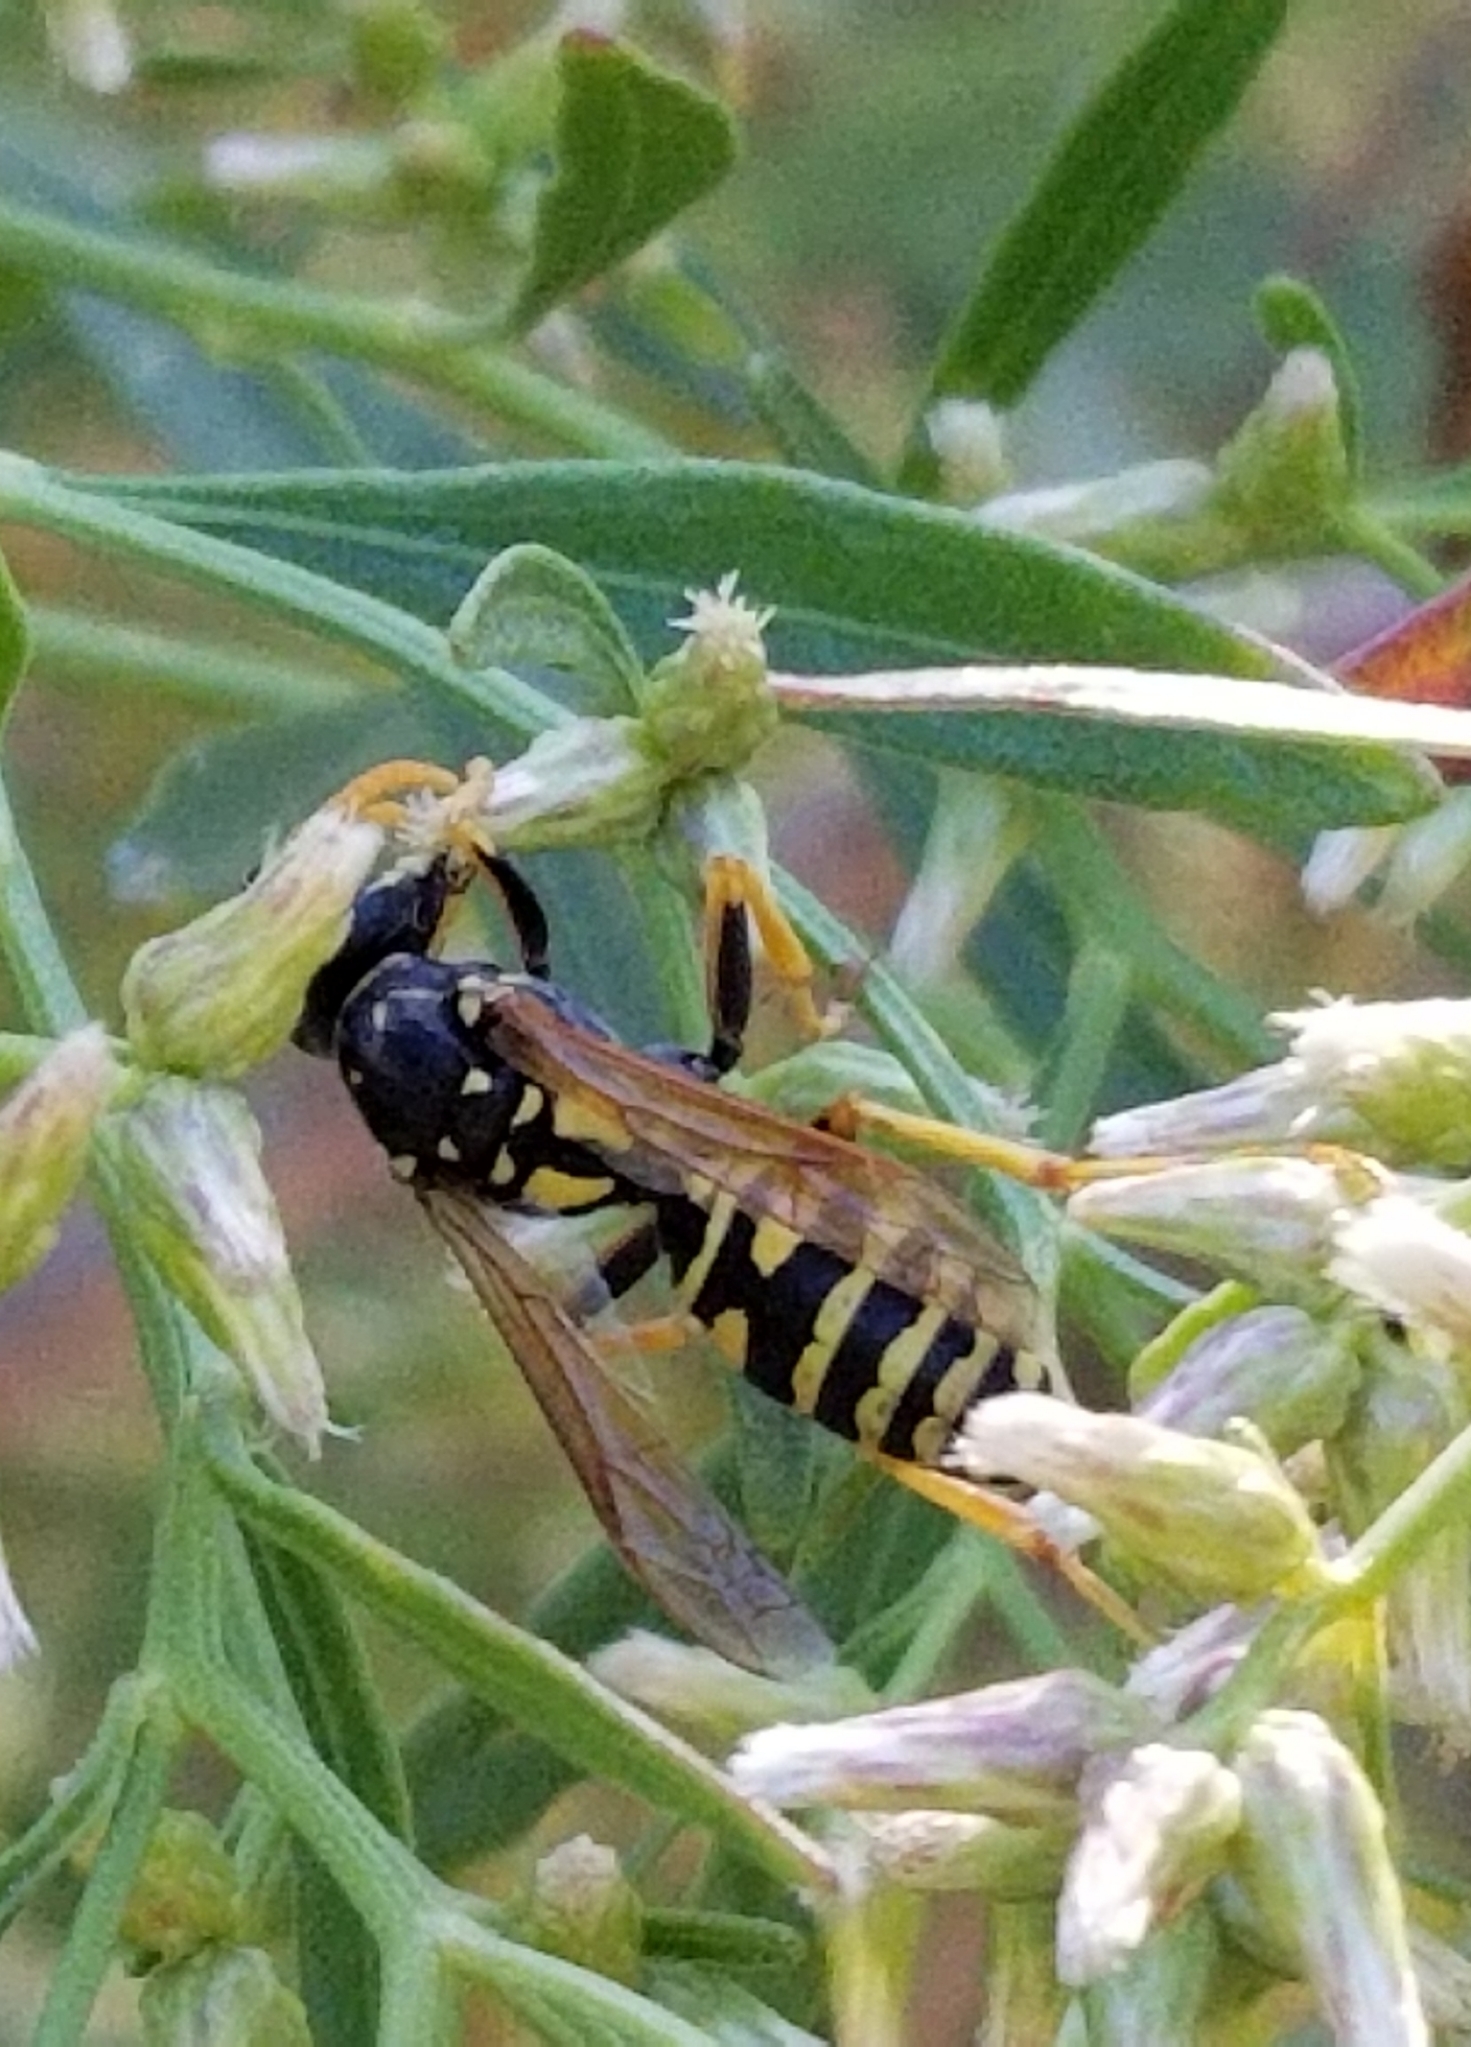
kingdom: Animalia
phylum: Arthropoda
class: Insecta
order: Hymenoptera
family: Eumenidae
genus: Polistes
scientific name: Polistes dominula
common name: Paper wasp
